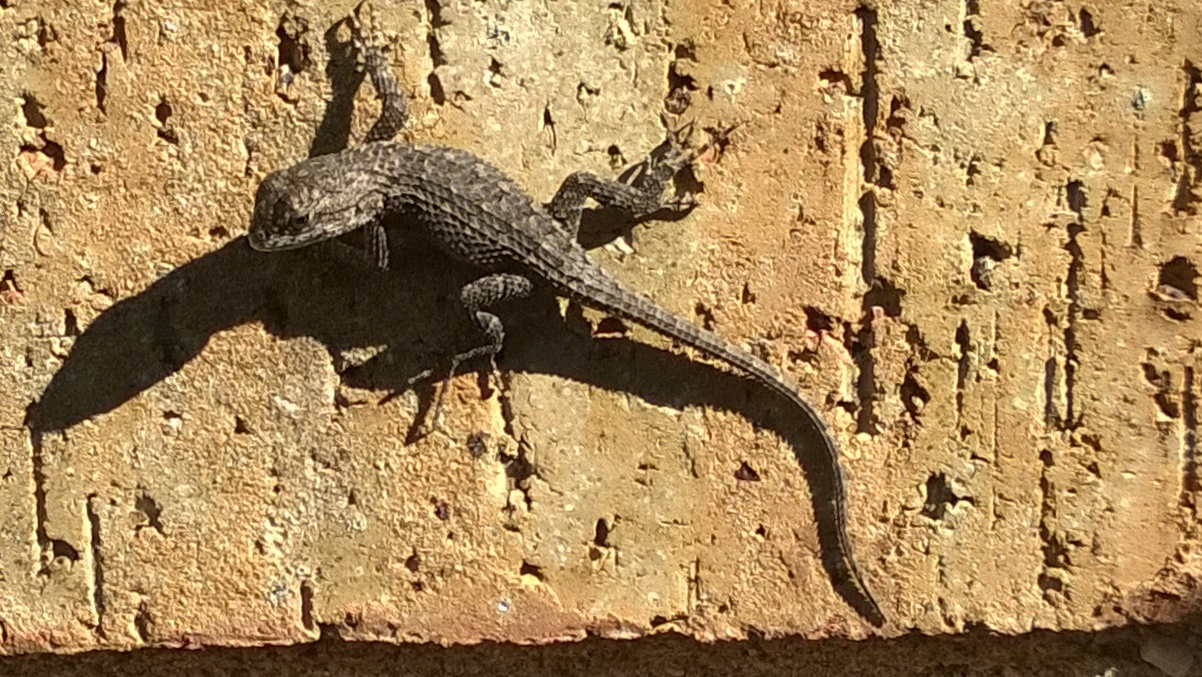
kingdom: Animalia
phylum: Chordata
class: Squamata
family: Phrynosomatidae
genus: Sceloporus
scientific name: Sceloporus olivaceus
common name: Texas spiny lizard
